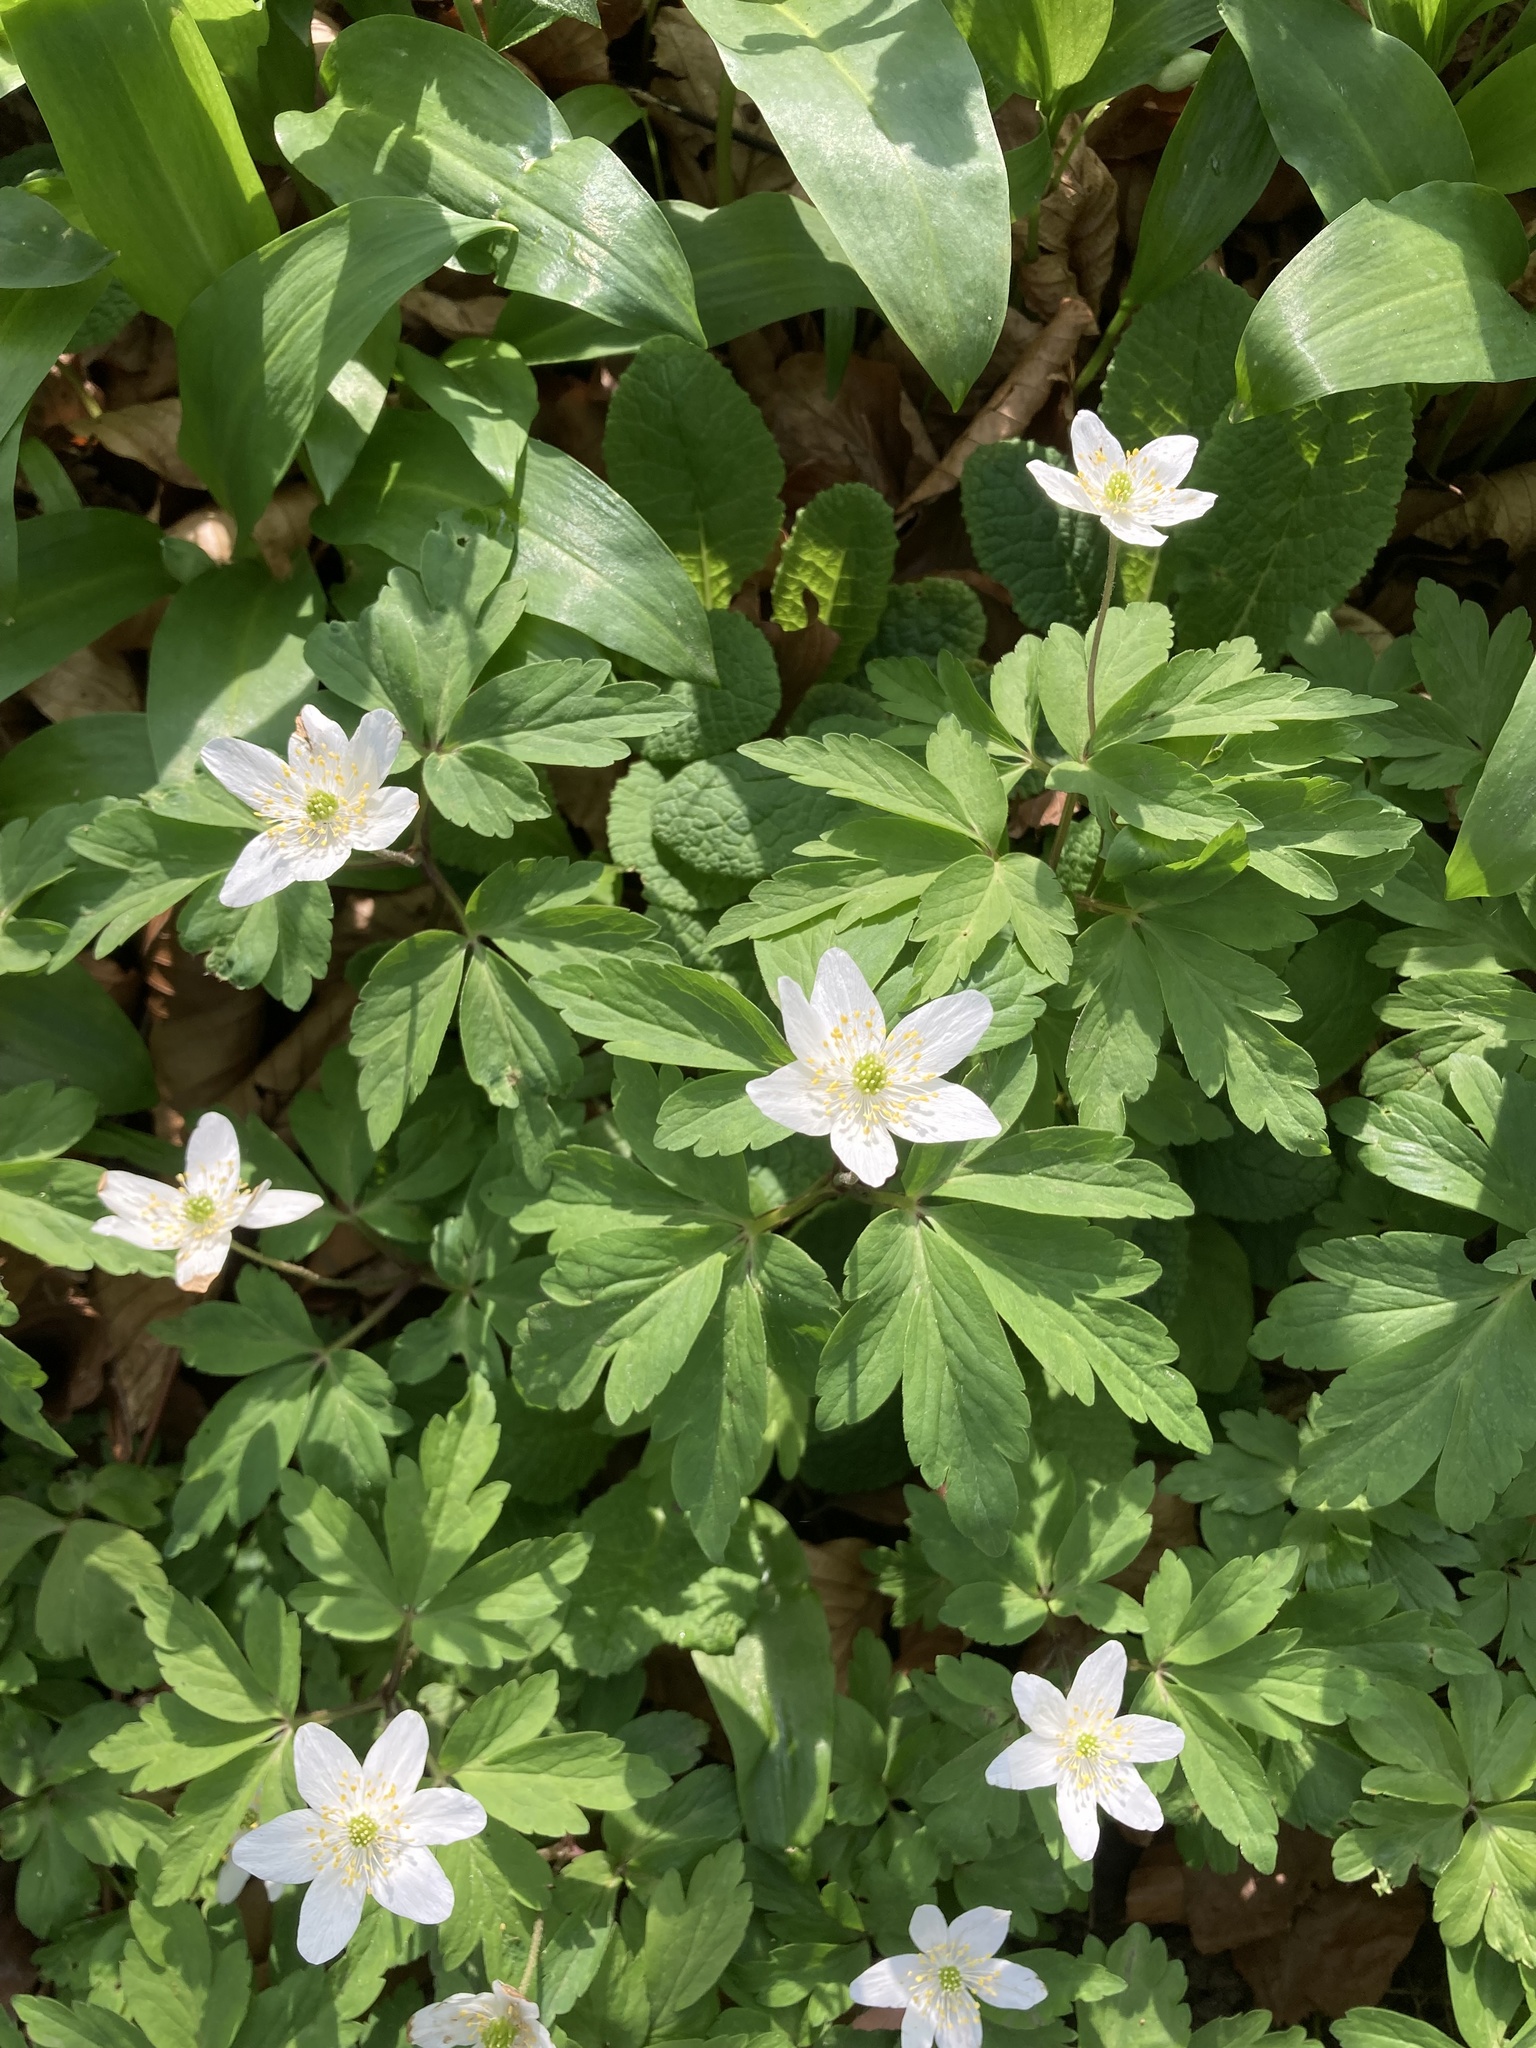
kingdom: Plantae
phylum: Tracheophyta
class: Magnoliopsida
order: Ranunculales
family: Ranunculaceae
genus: Anemone
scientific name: Anemone nemorosa
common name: Wood anemone
